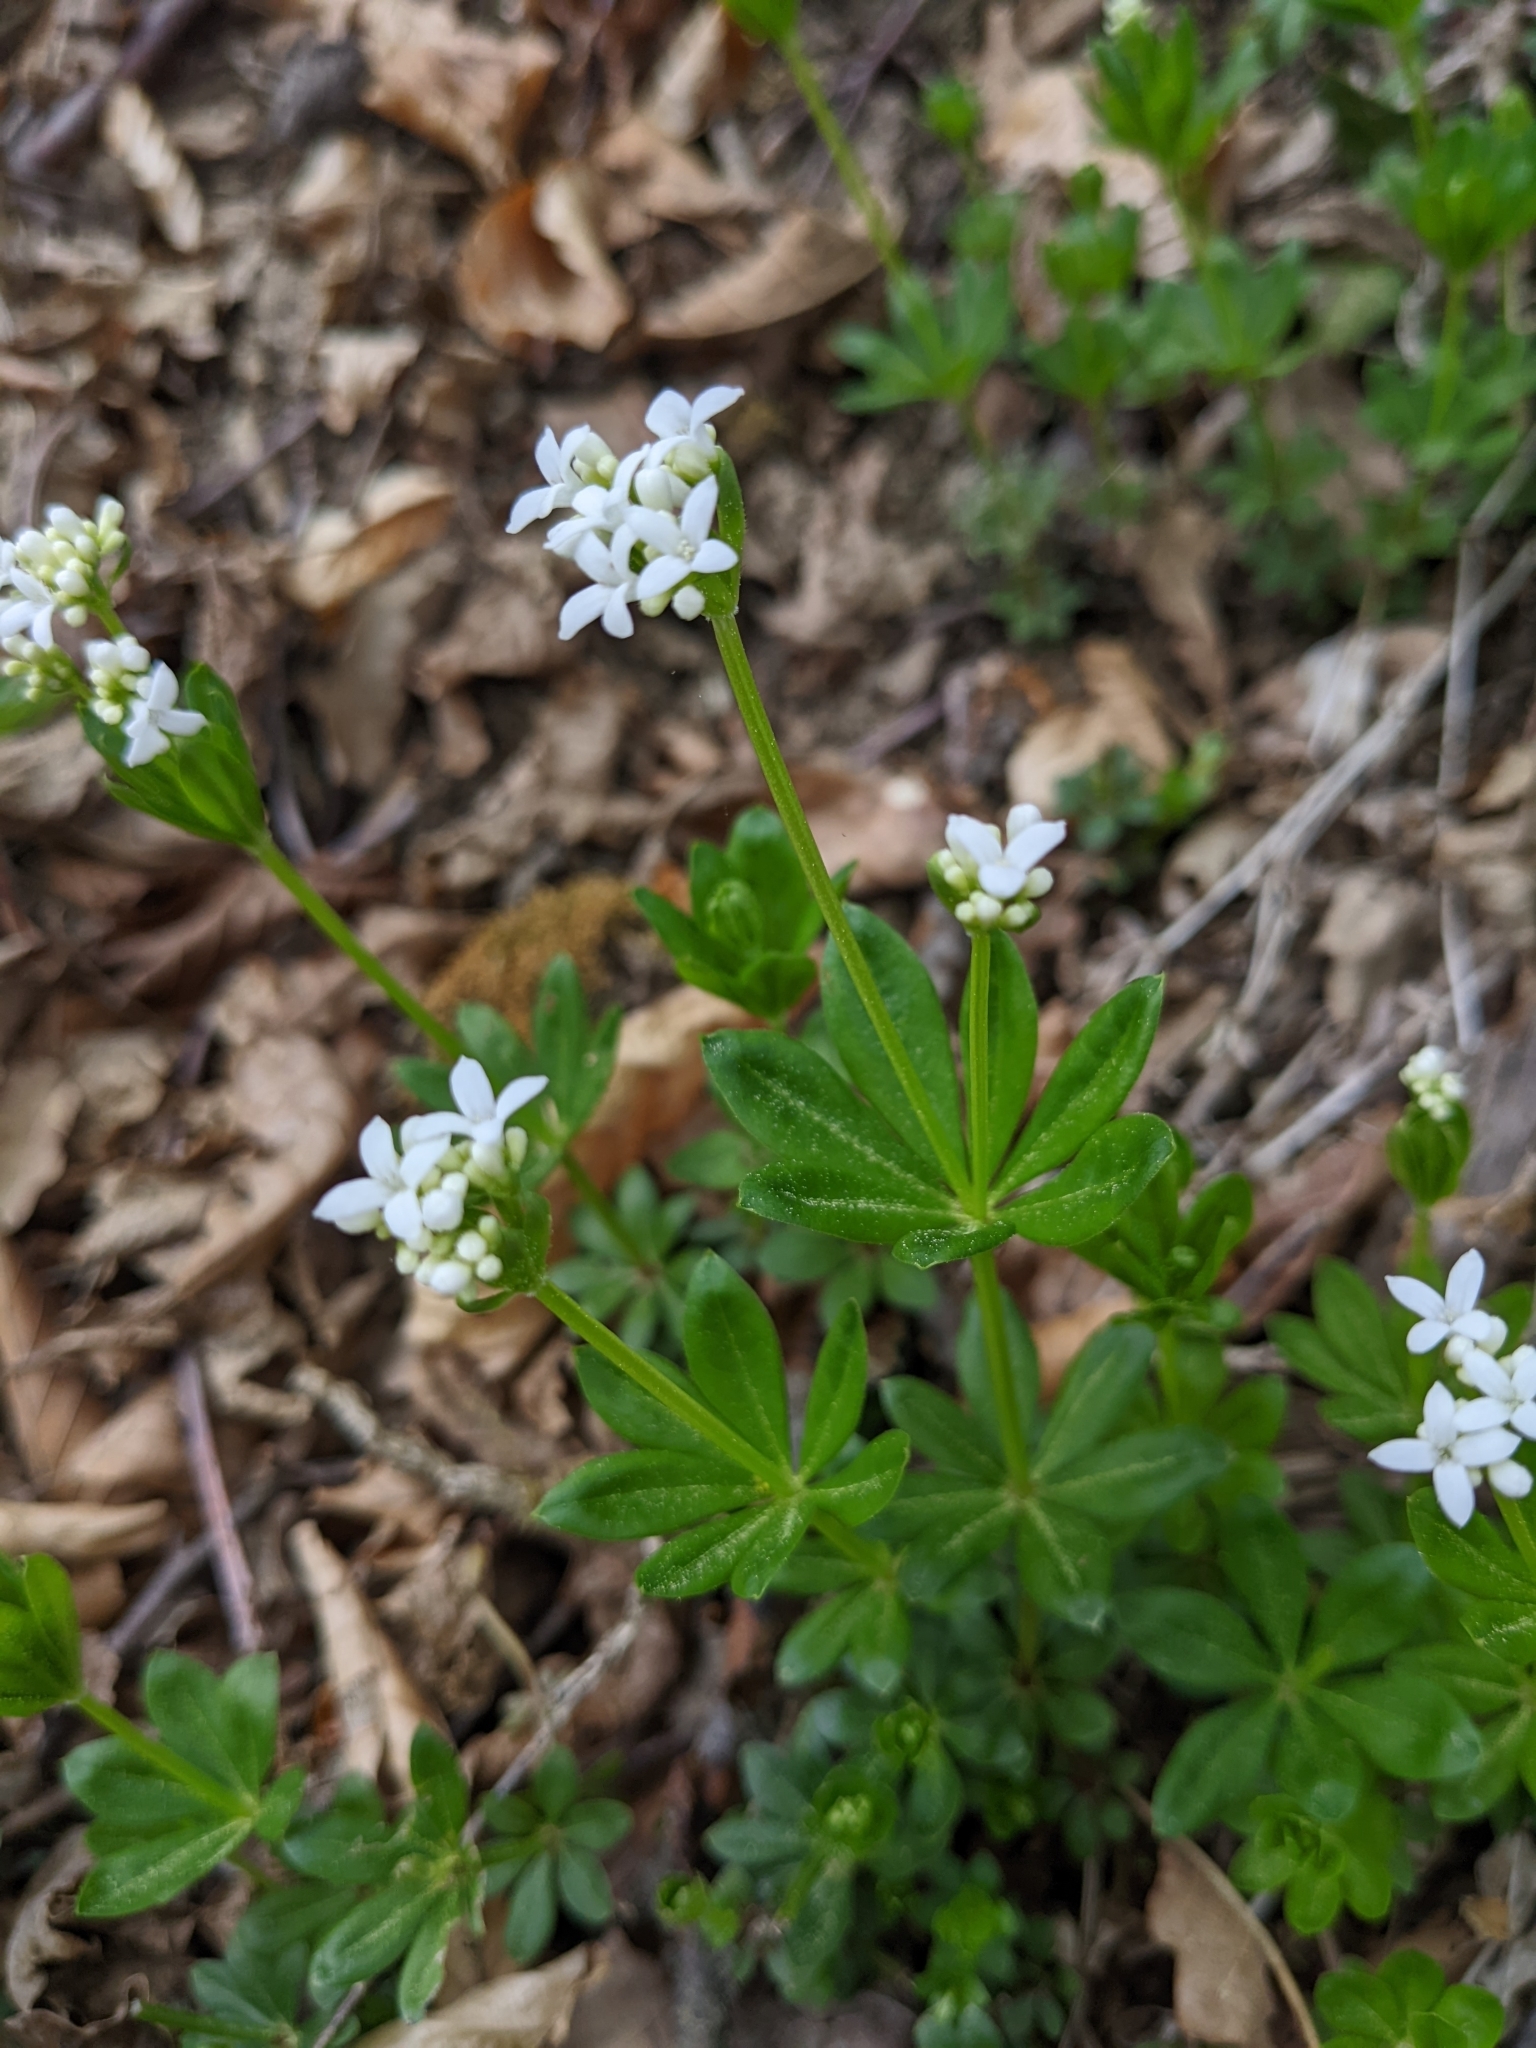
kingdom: Plantae
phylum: Tracheophyta
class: Magnoliopsida
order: Gentianales
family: Rubiaceae
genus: Galium
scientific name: Galium odoratum
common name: Sweet woodruff
